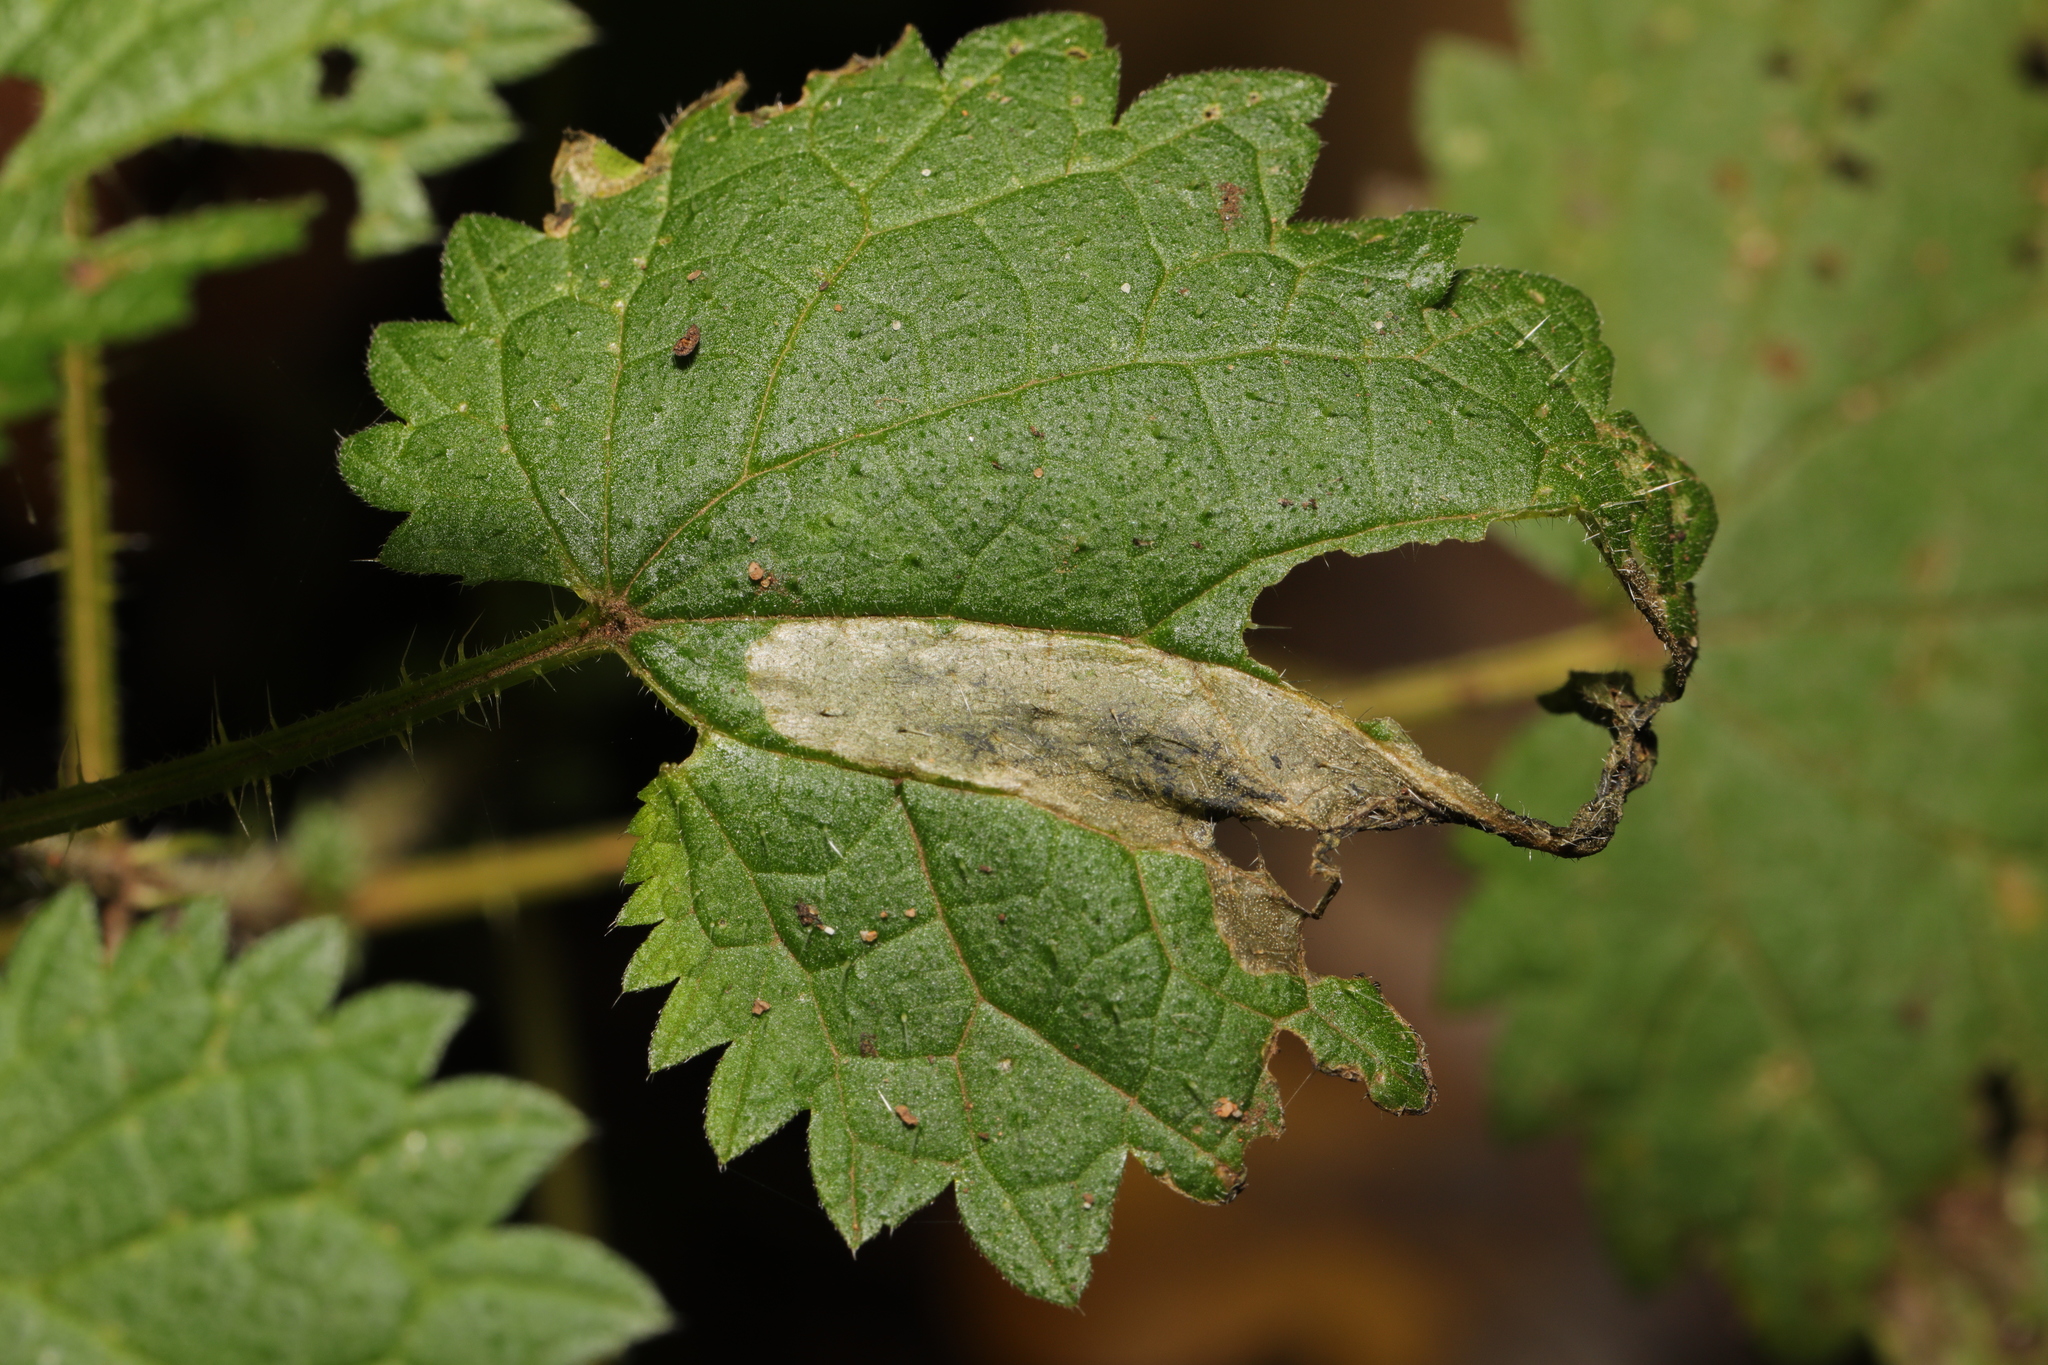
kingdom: Animalia
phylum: Arthropoda
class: Insecta
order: Diptera
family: Agromyzidae
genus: Agromyza
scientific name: Agromyza anthracina
